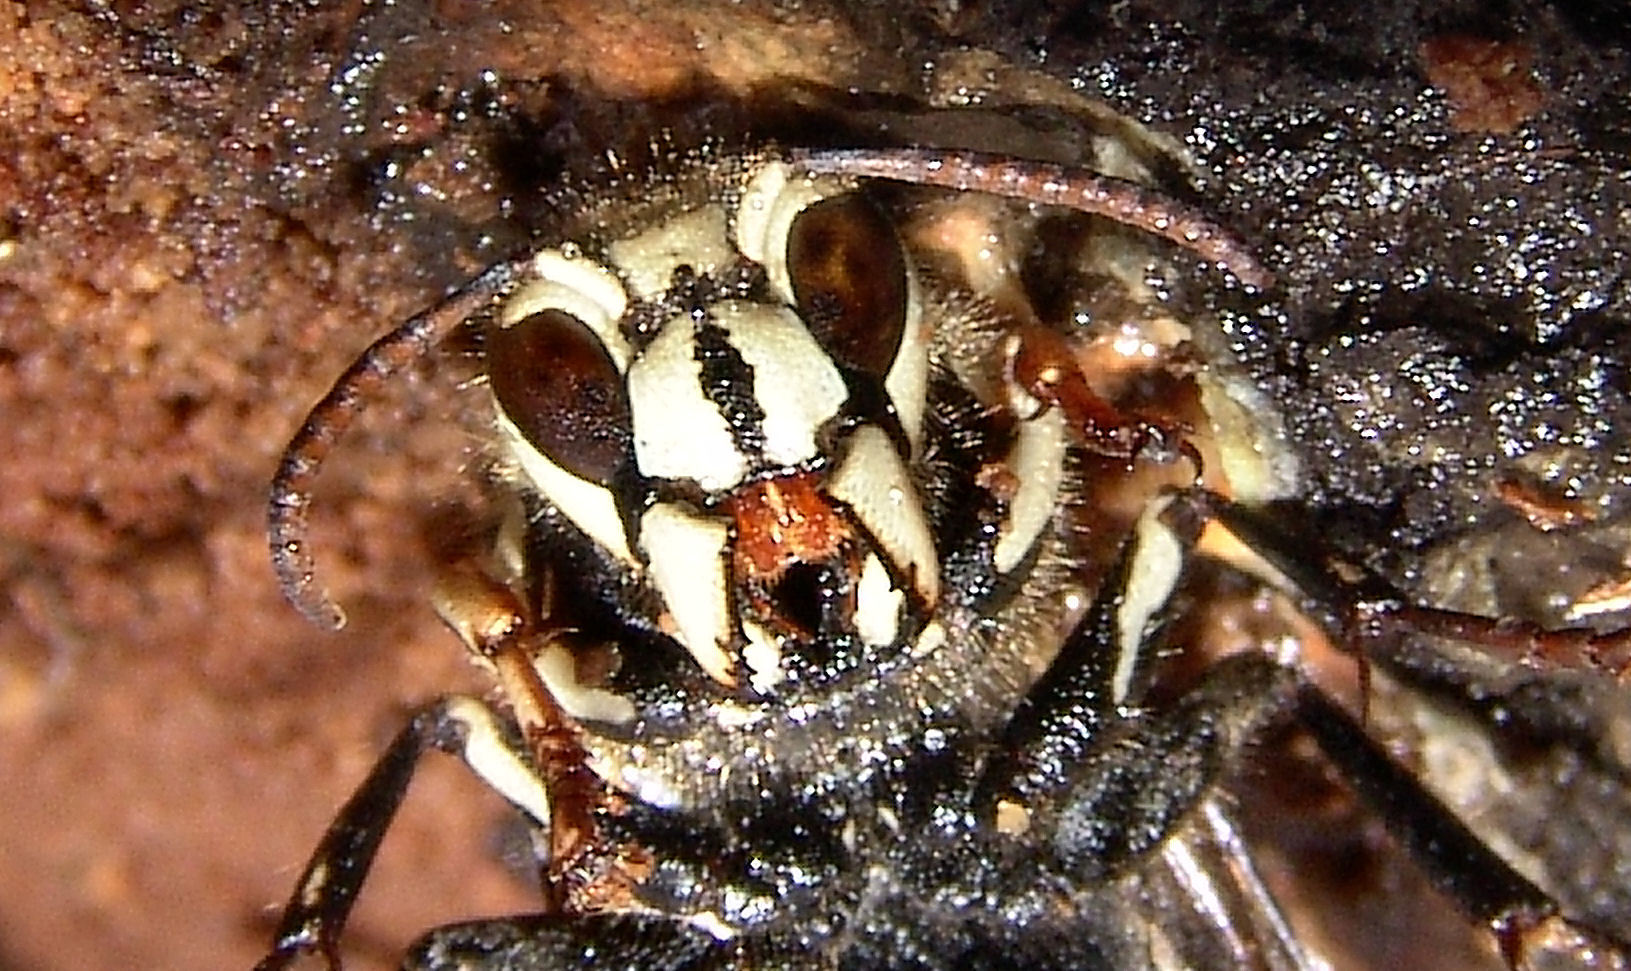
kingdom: Animalia
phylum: Arthropoda
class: Insecta
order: Hymenoptera
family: Vespidae
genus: Dolichovespula
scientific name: Dolichovespula maculata
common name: Bald-faced hornet
